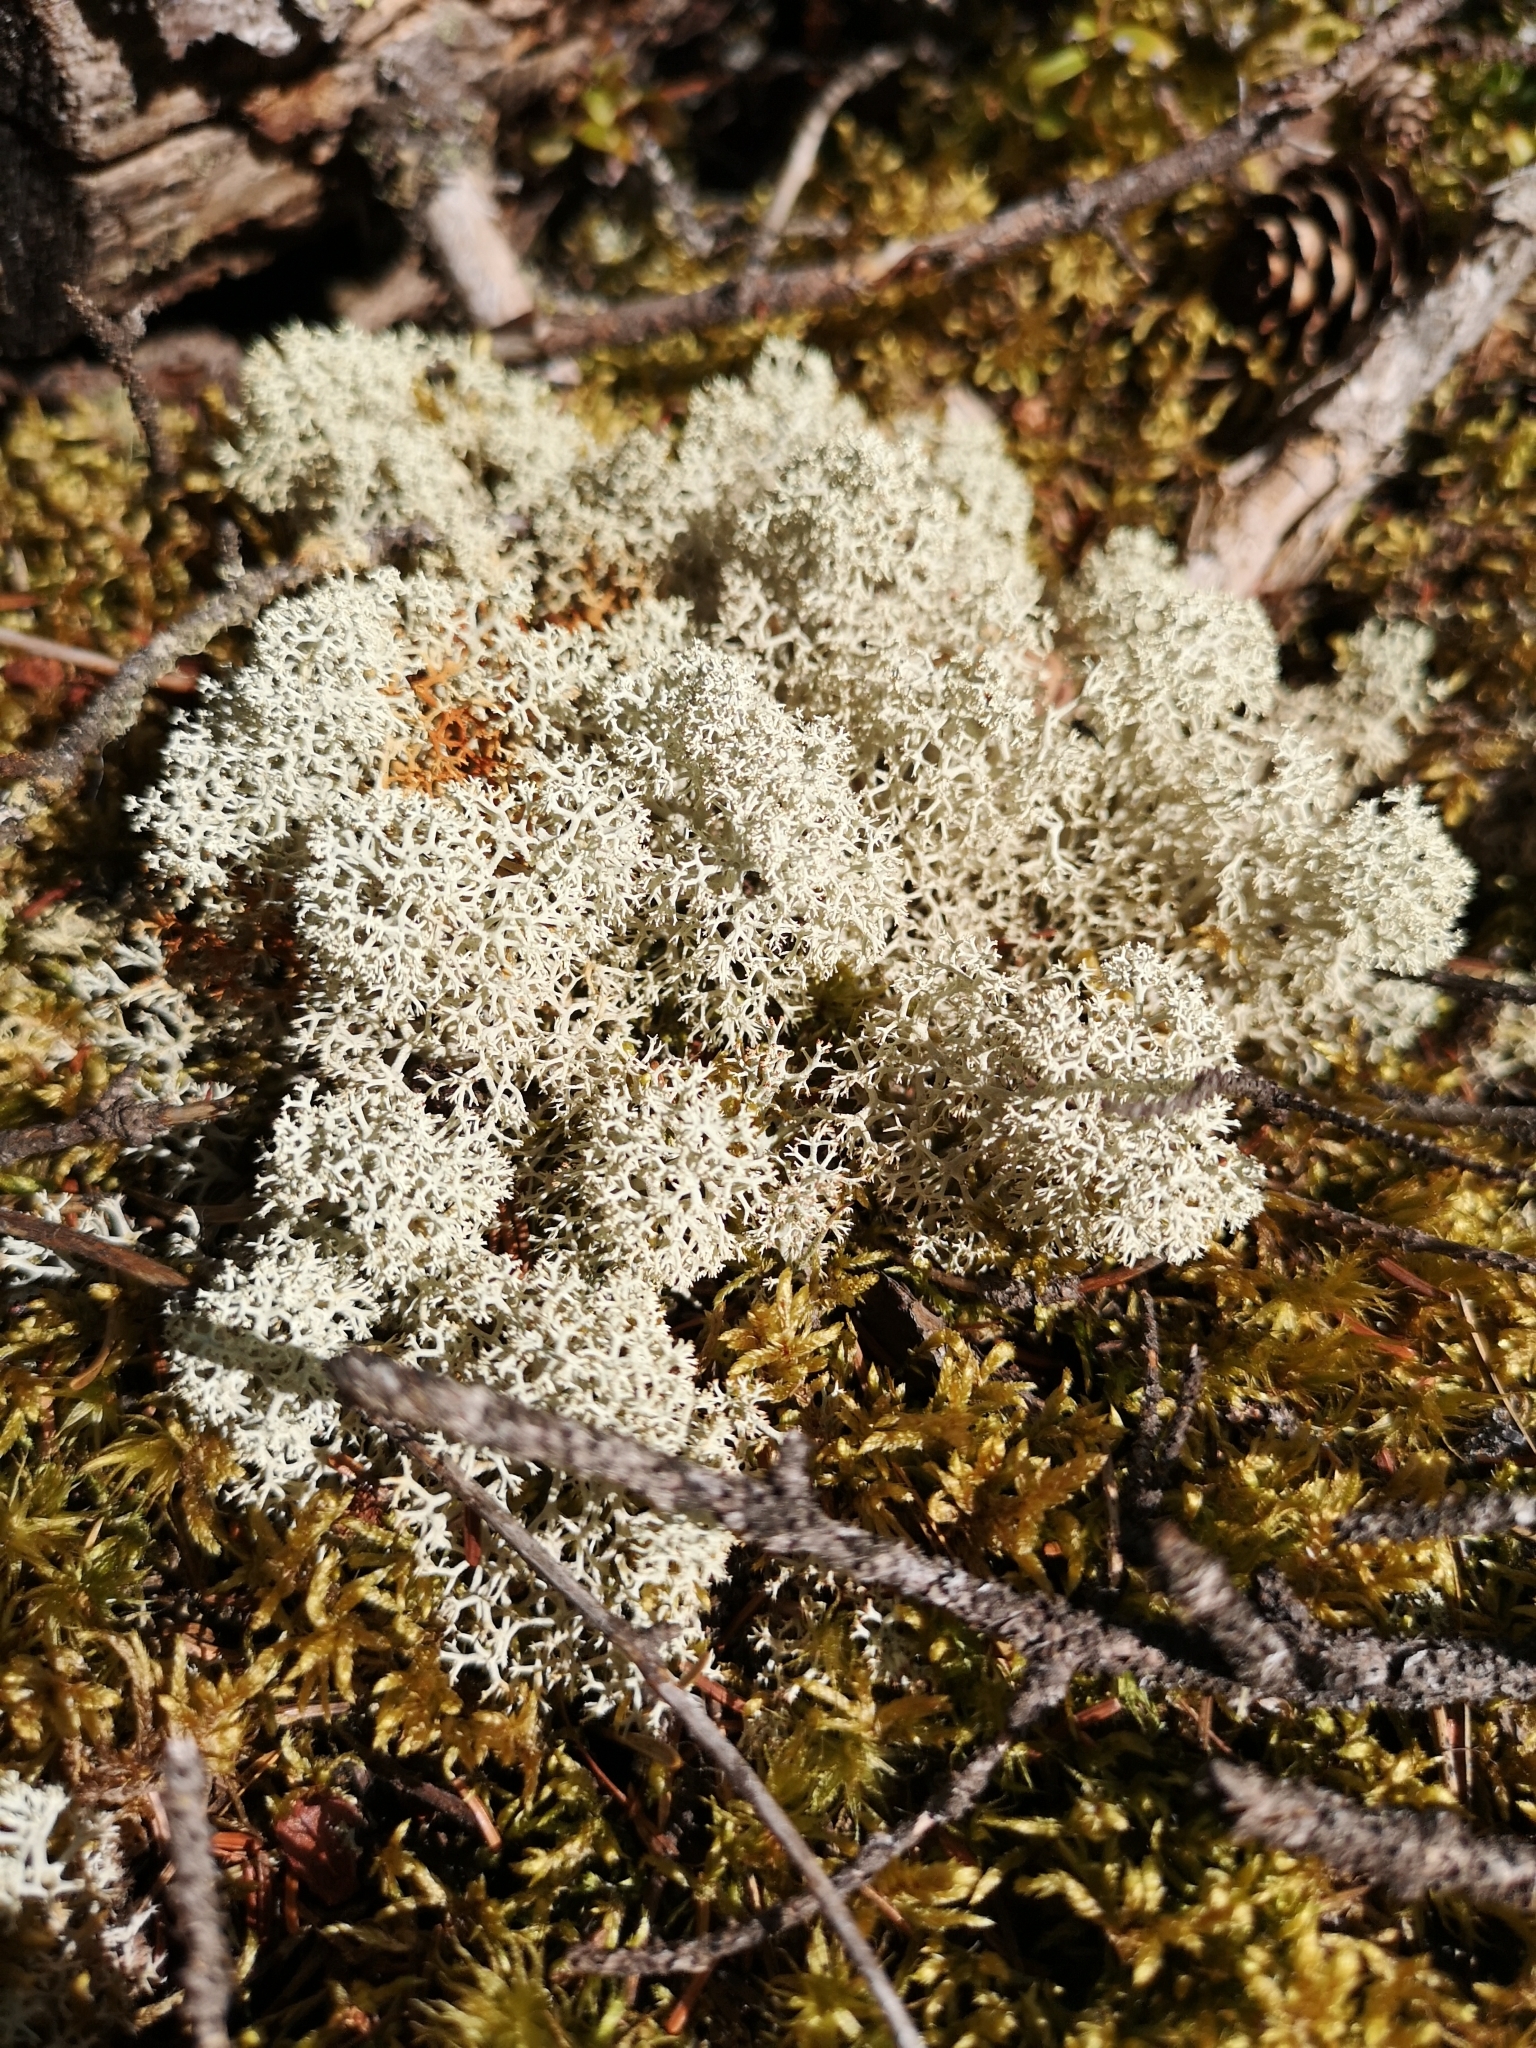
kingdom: Fungi
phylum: Ascomycota
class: Lecanoromycetes
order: Lecanorales
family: Cladoniaceae
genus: Cladonia
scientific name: Cladonia stellaris
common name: Star-tipped reindeer lichen
